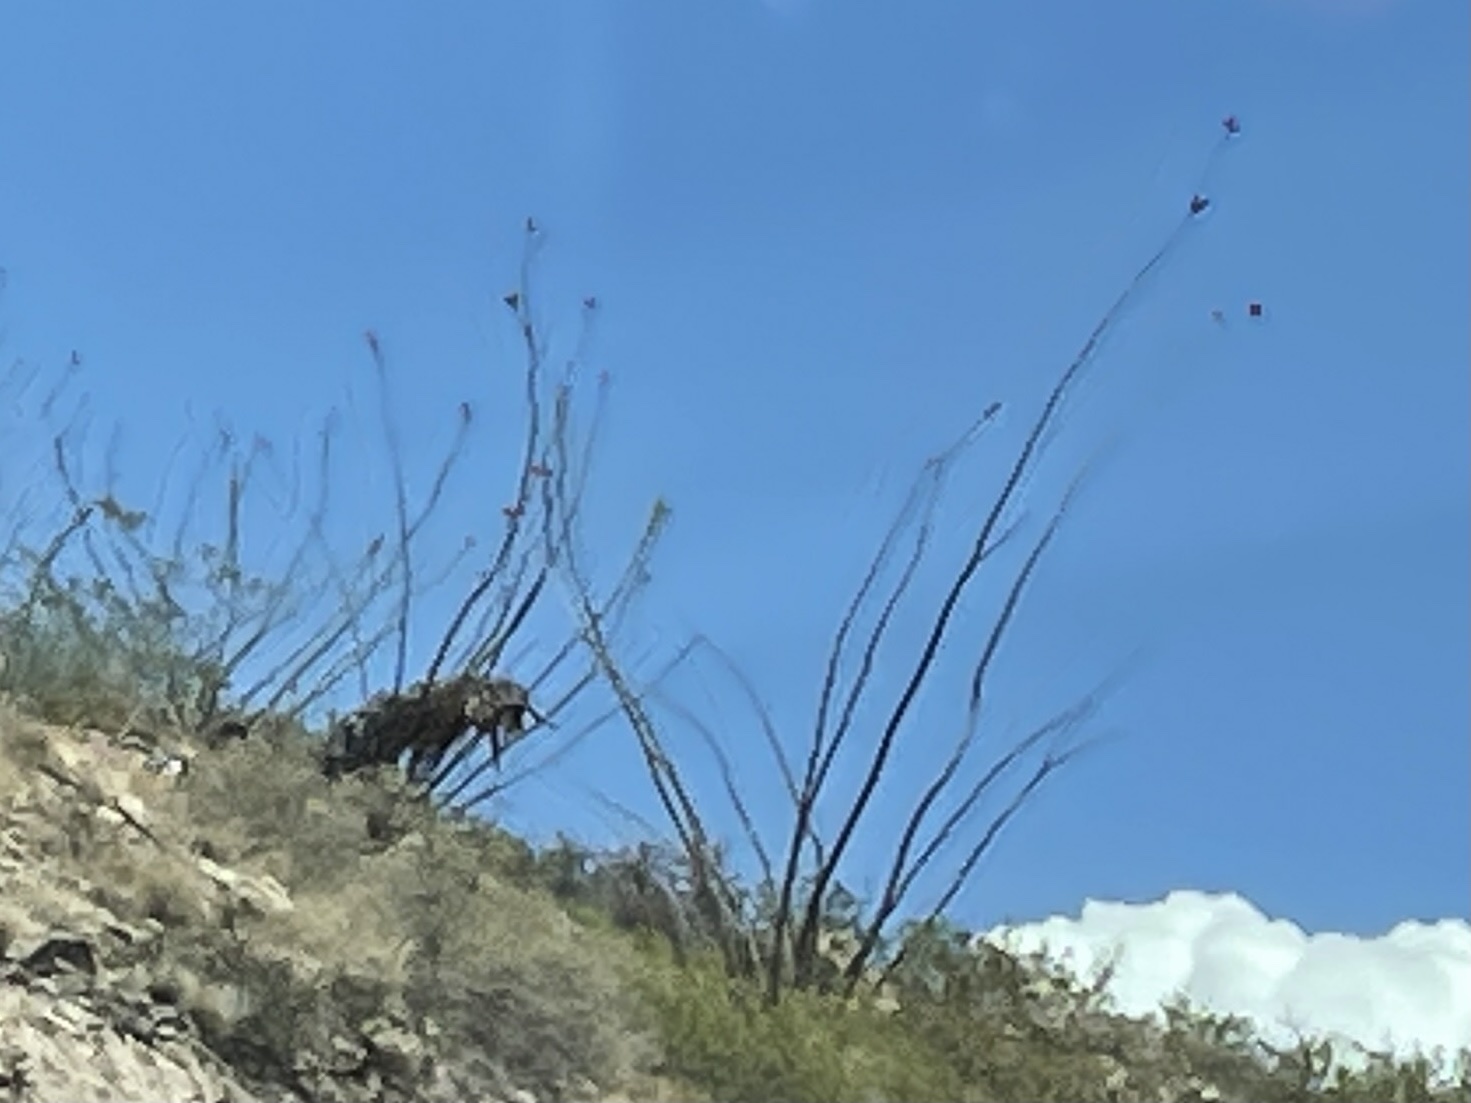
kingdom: Plantae
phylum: Tracheophyta
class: Magnoliopsida
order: Ericales
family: Fouquieriaceae
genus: Fouquieria
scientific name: Fouquieria splendens
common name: Vine-cactus
